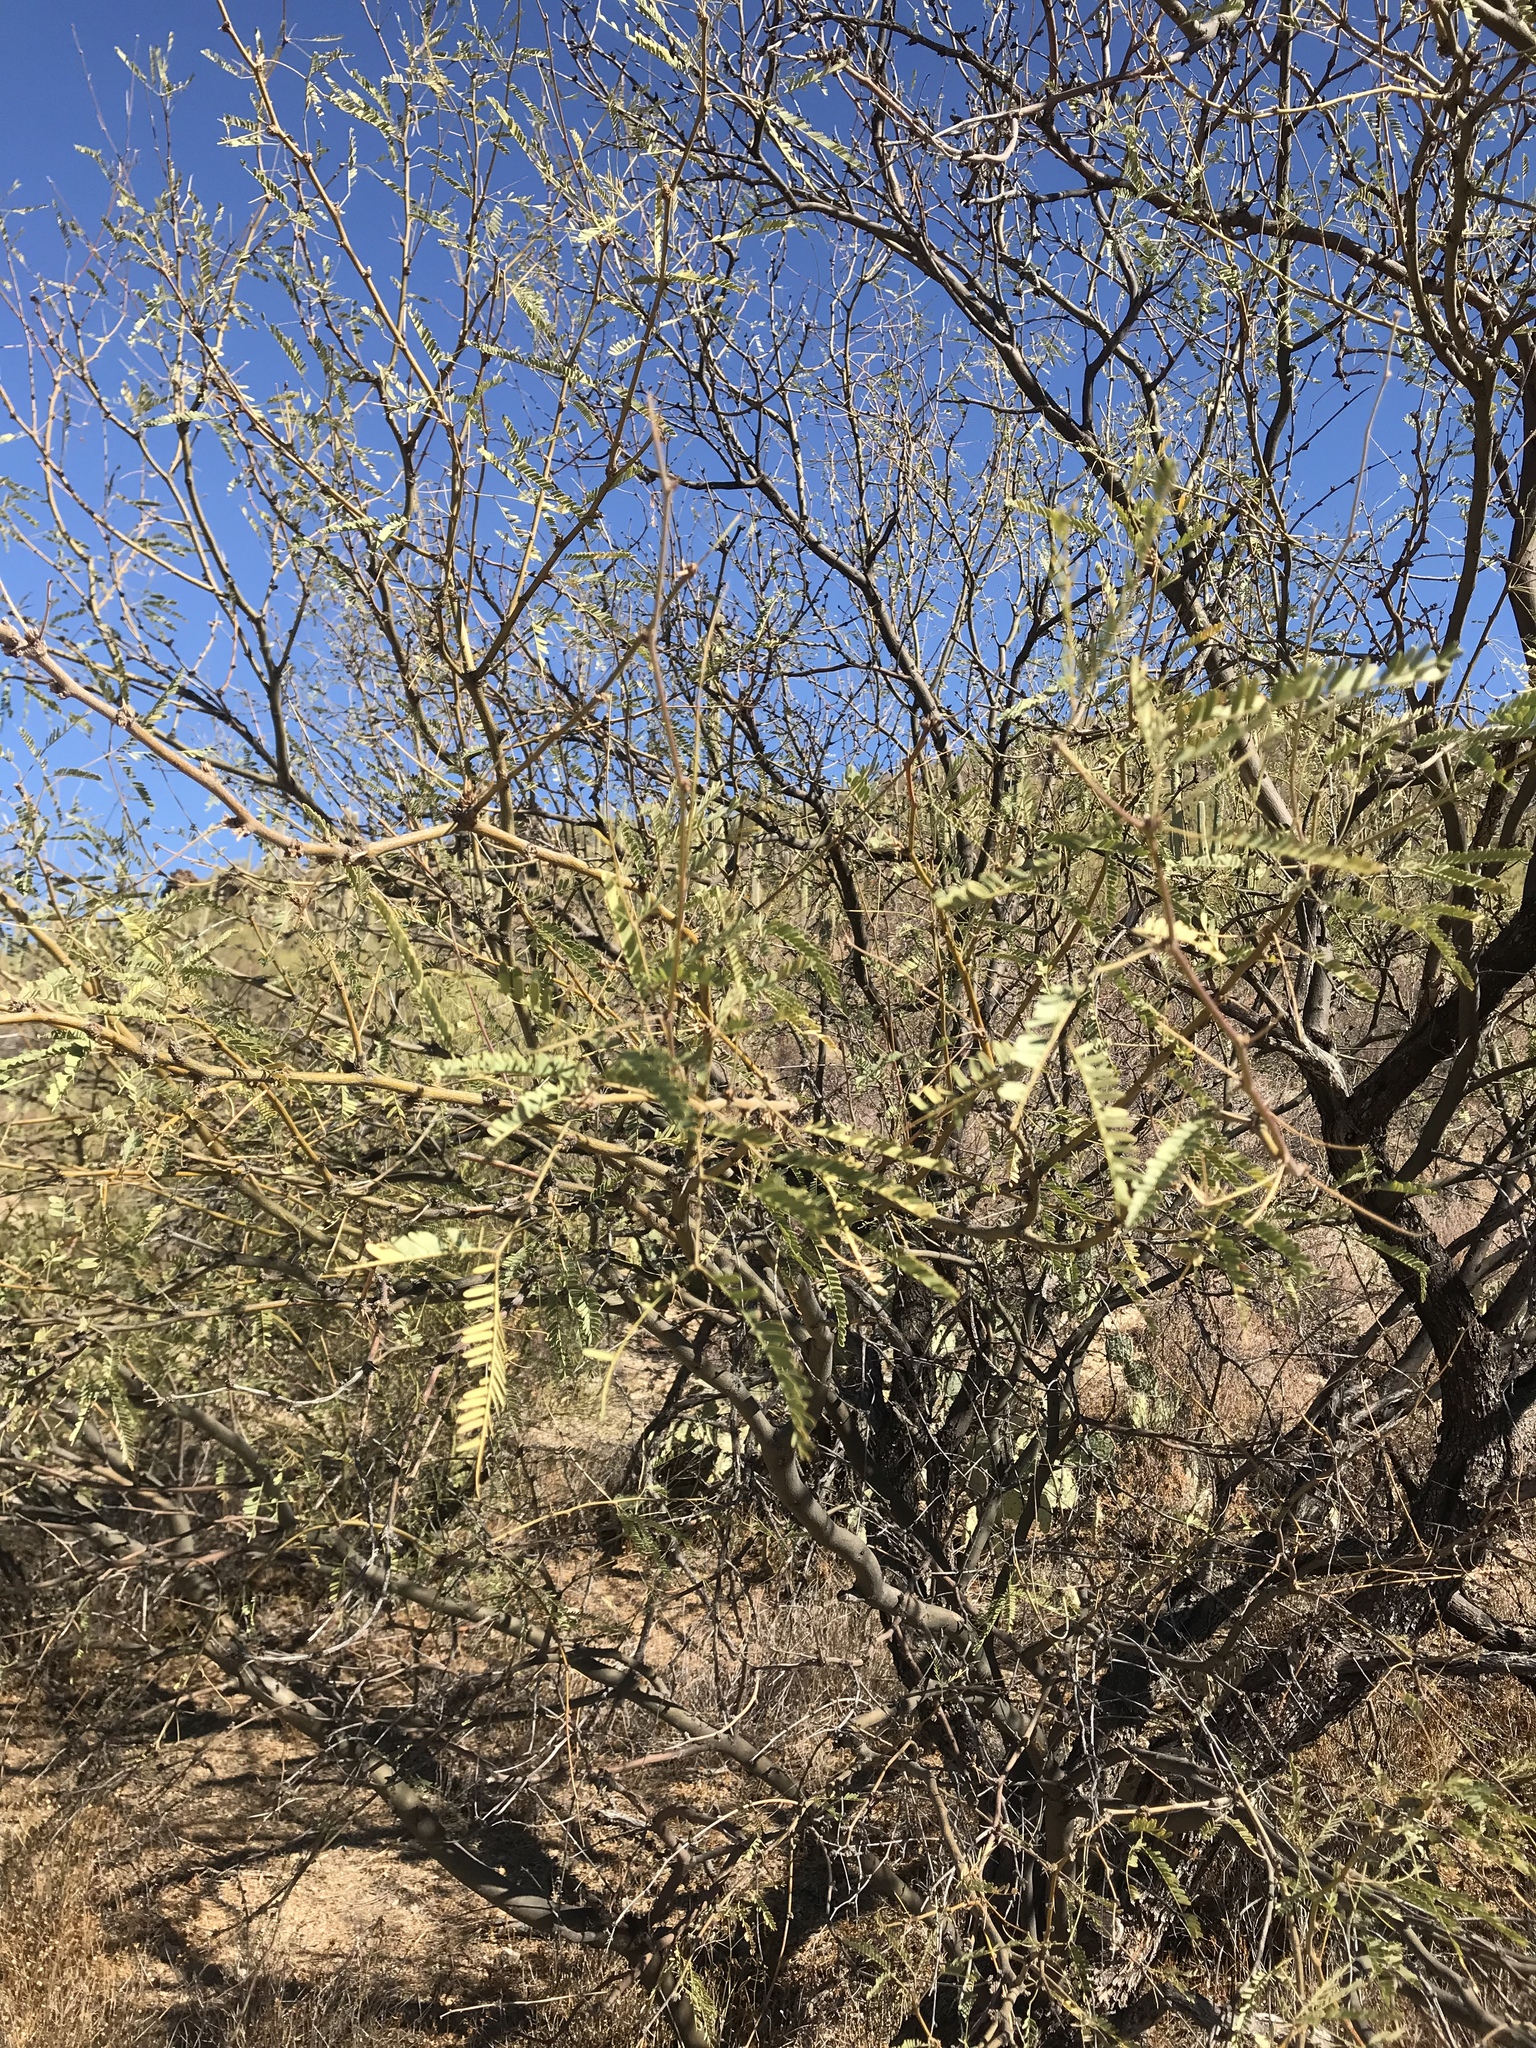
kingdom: Plantae
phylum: Tracheophyta
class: Magnoliopsida
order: Fabales
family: Fabaceae
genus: Prosopis
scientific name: Prosopis velutina
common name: Velvet mesquite
